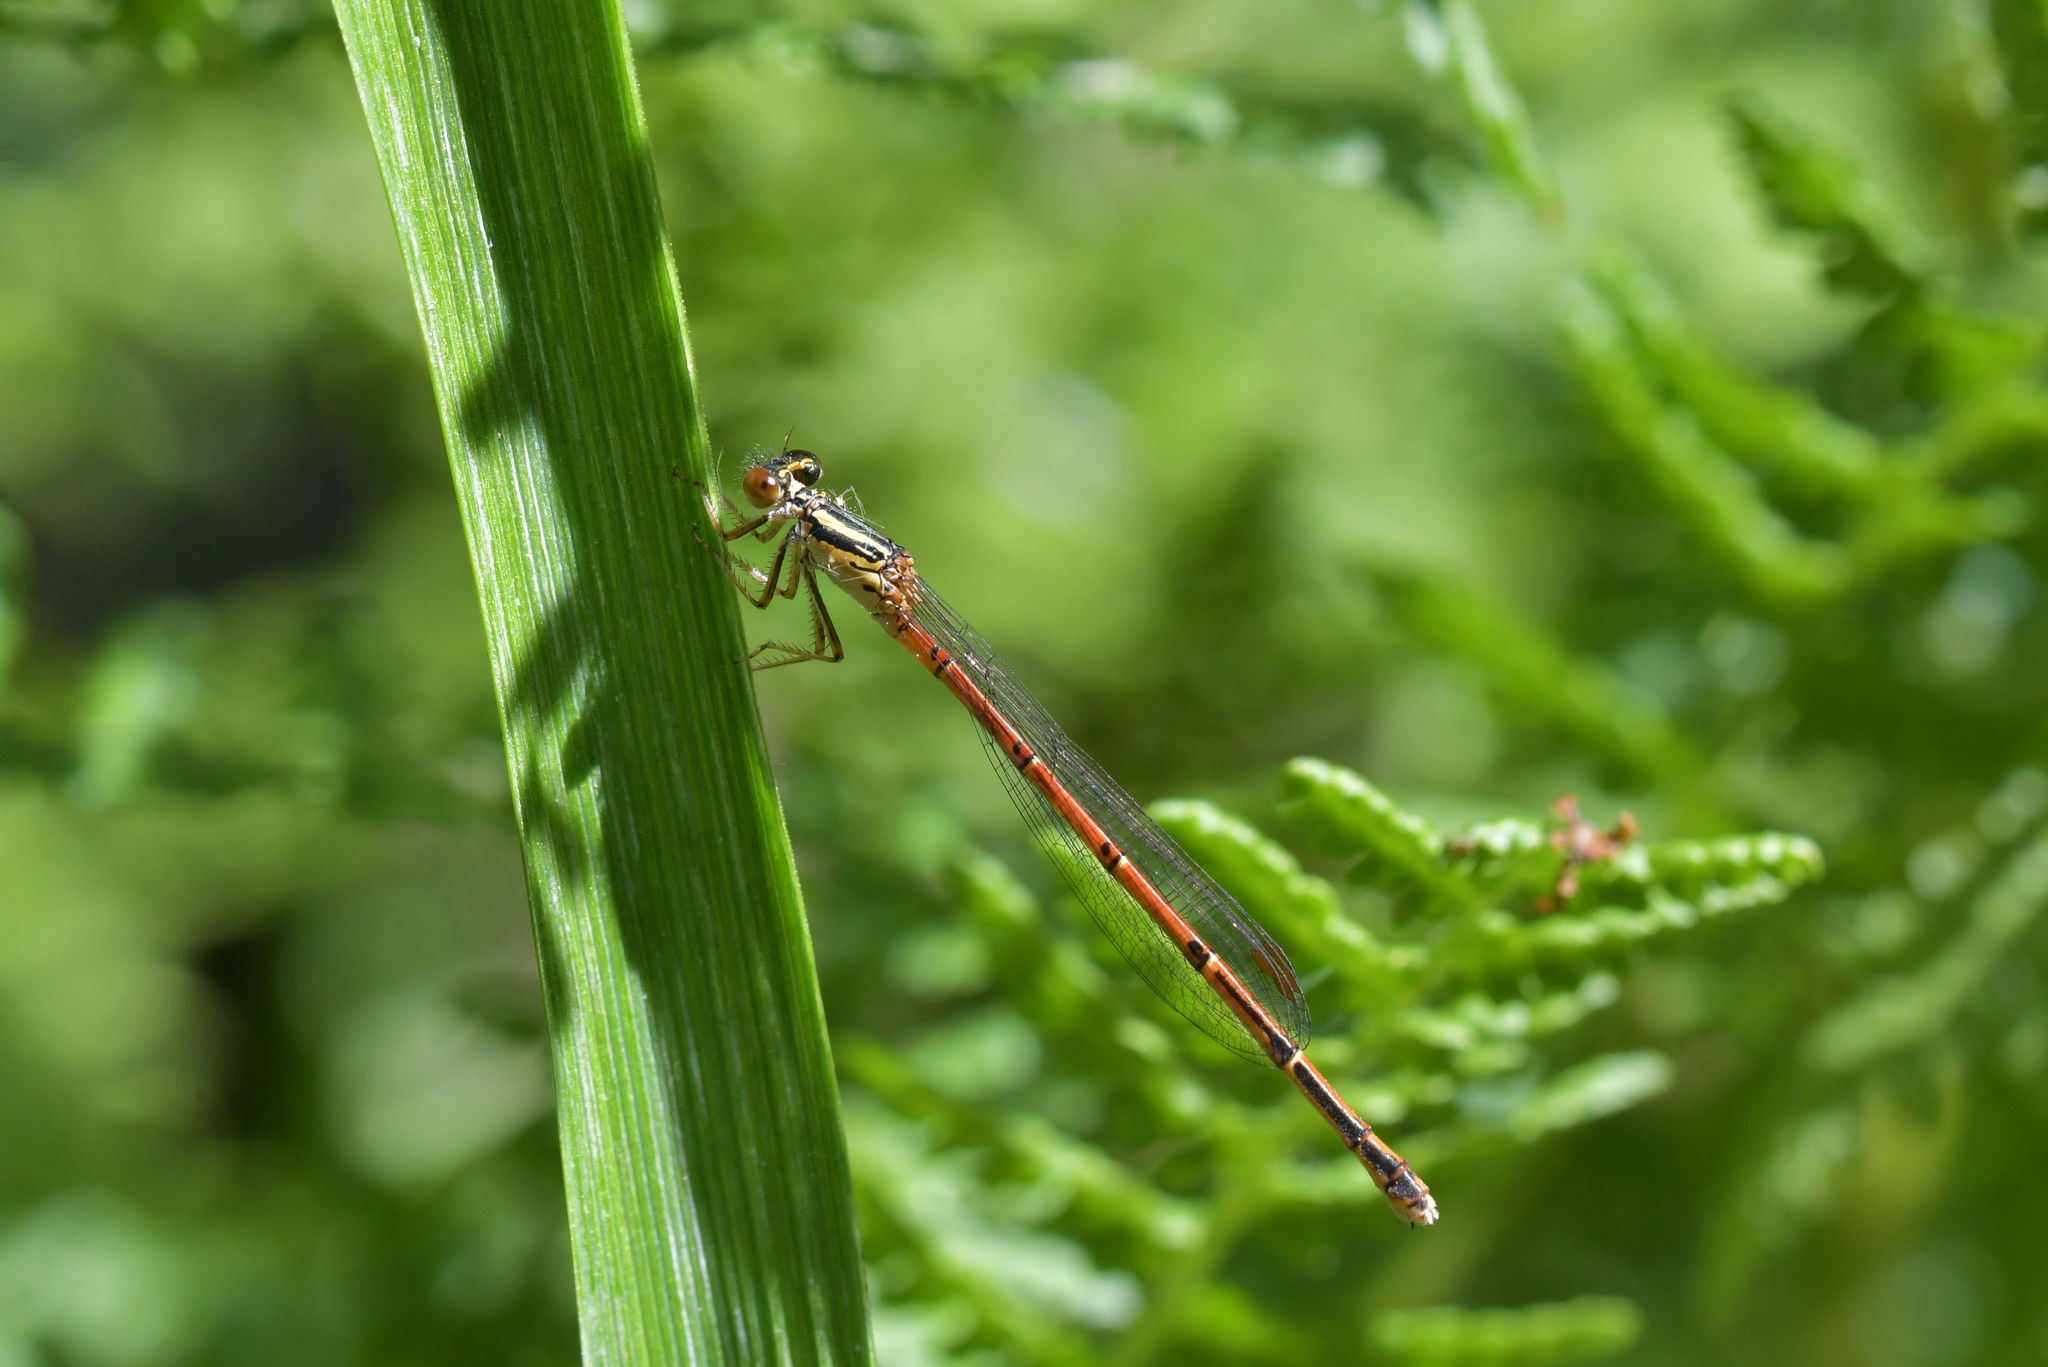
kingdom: Animalia
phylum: Arthropoda
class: Insecta
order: Odonata
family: Coenagrionidae
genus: Xanthocnemis
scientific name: Xanthocnemis zealandica
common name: Common redcoat damselfly
